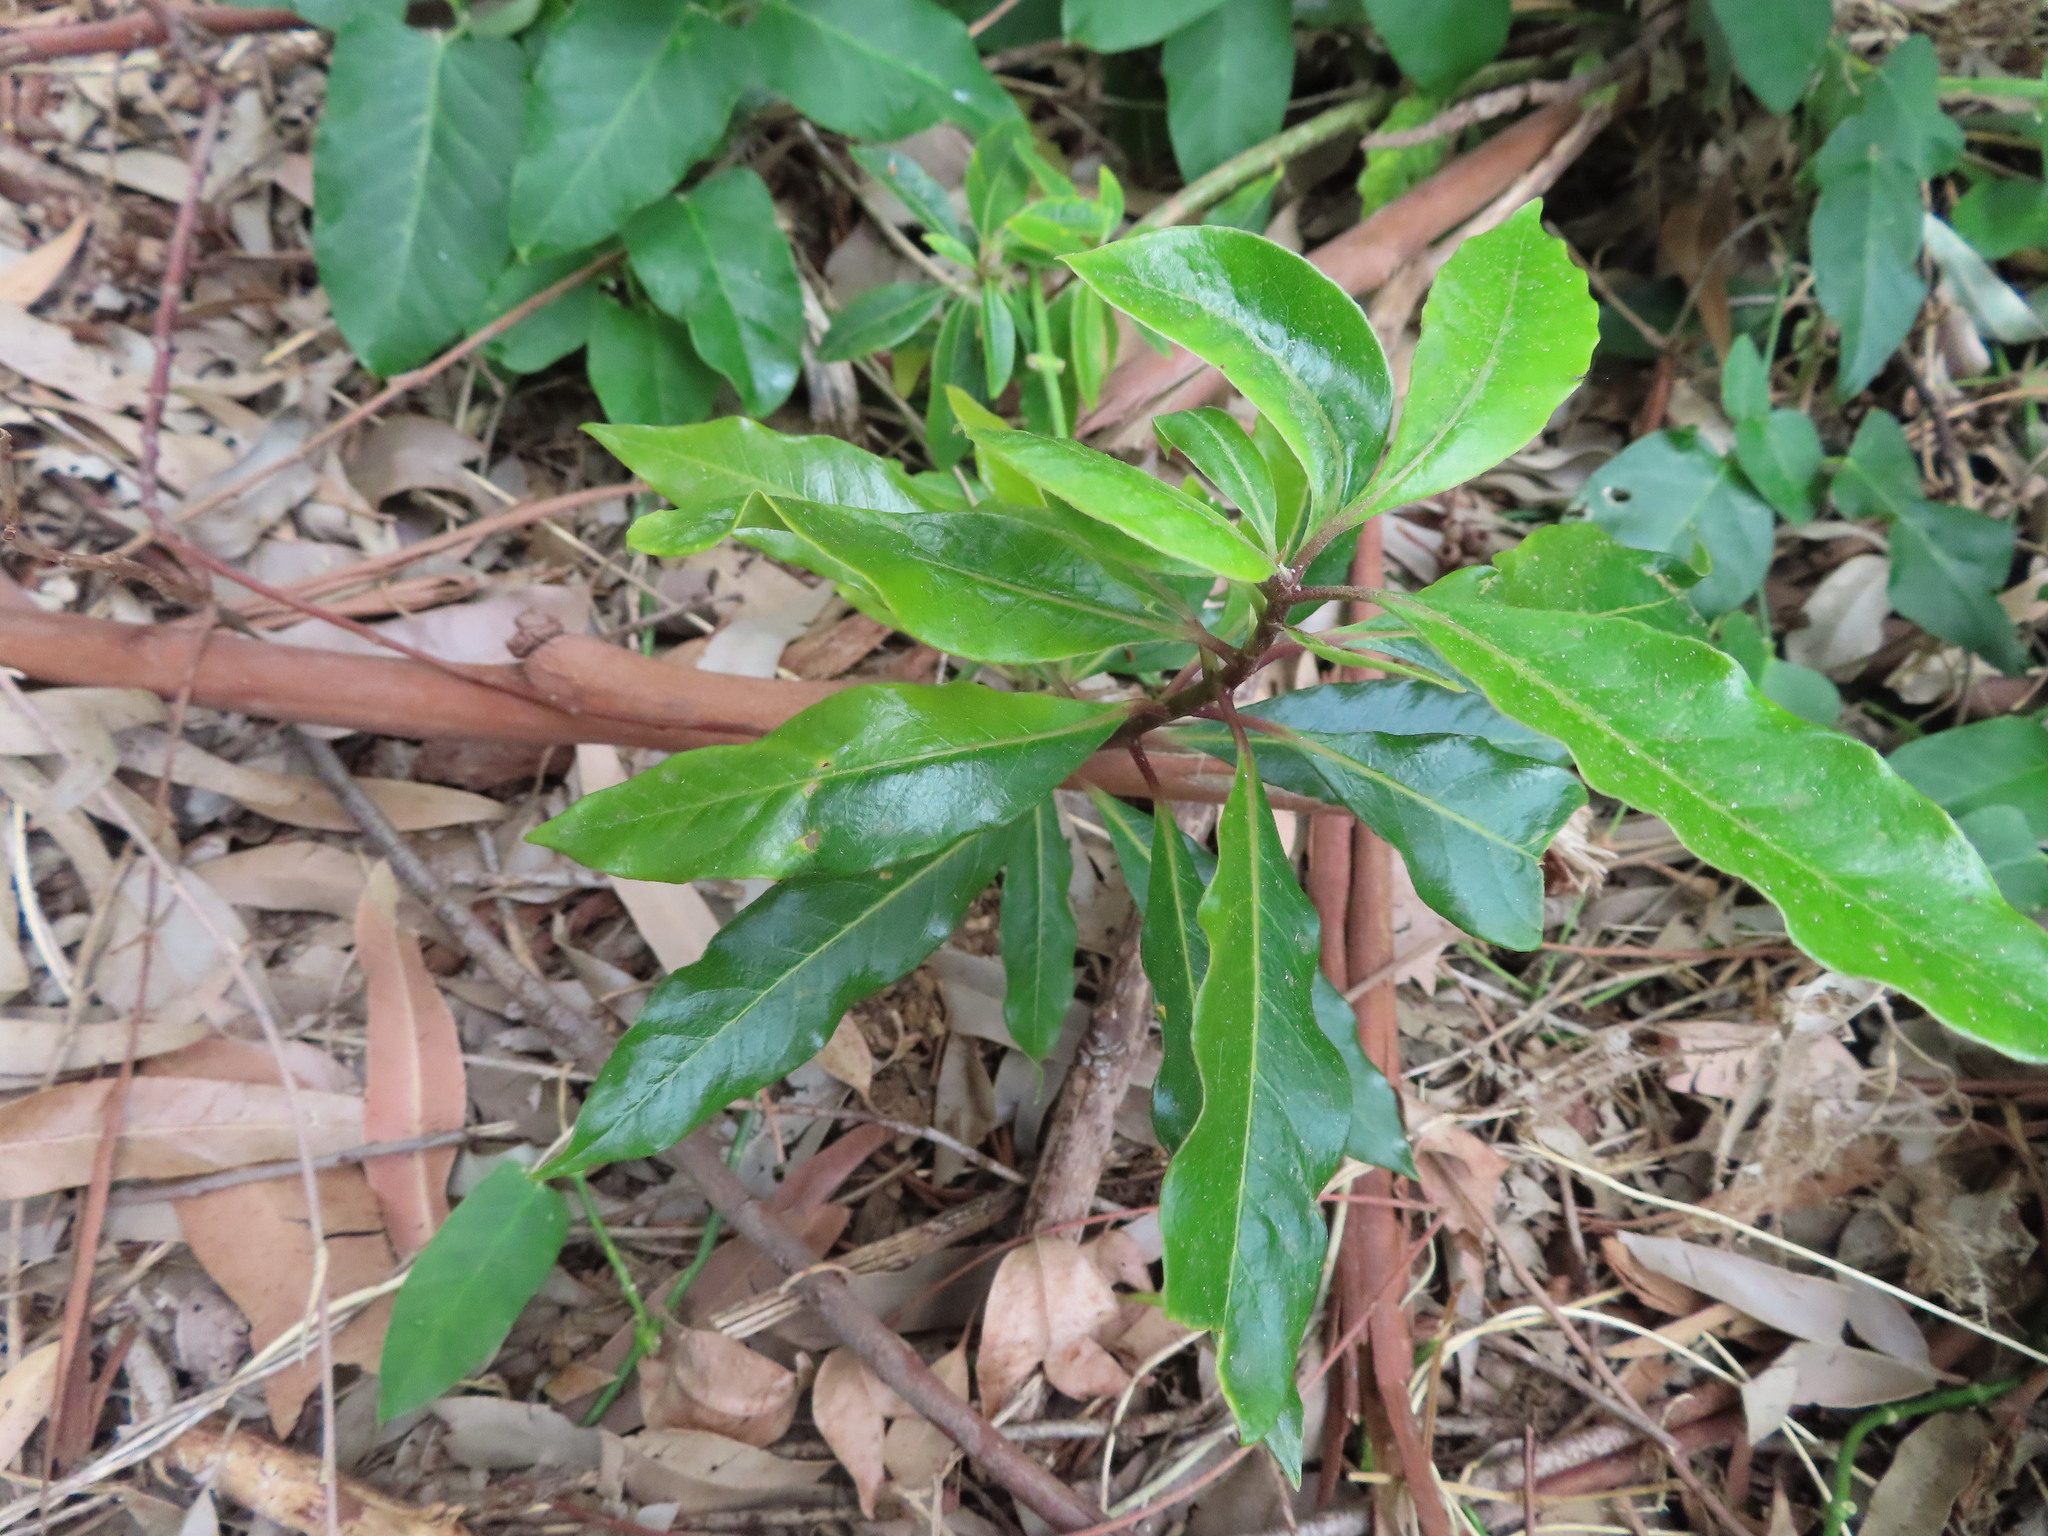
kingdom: Plantae
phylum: Tracheophyta
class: Magnoliopsida
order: Apiales
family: Pittosporaceae
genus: Pittosporum
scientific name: Pittosporum undulatum
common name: Australian cheesewood
